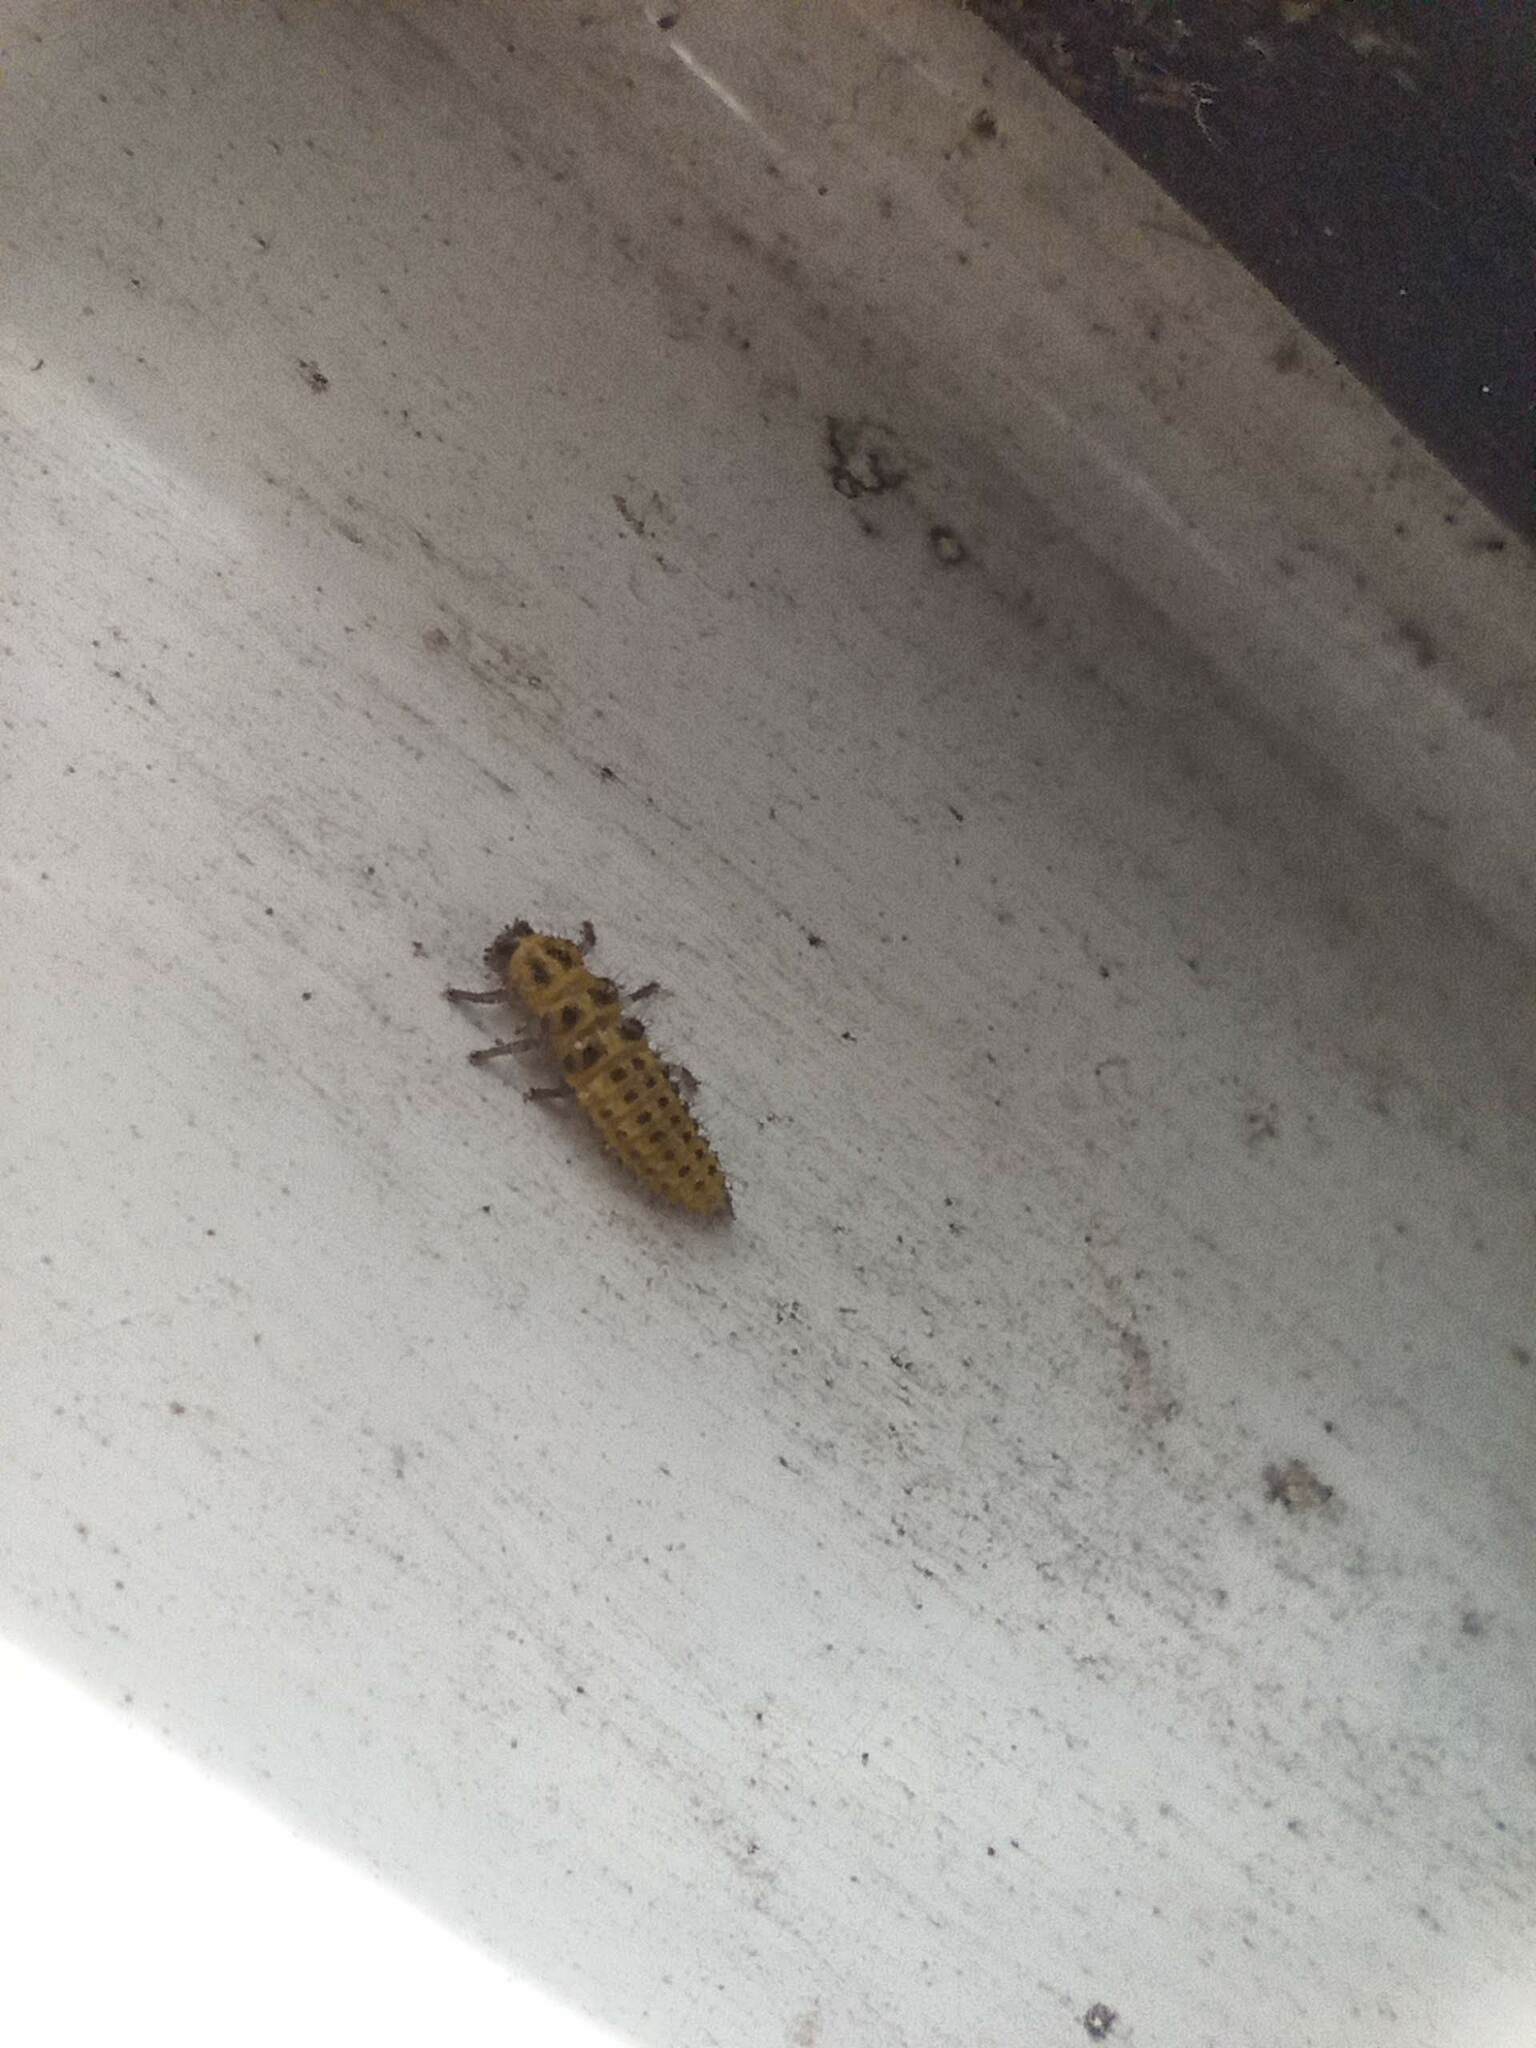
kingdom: Animalia
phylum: Arthropoda
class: Insecta
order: Coleoptera
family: Coccinellidae
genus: Psyllobora
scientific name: Psyllobora vigintiduopunctata
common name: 22-spot ladybird
